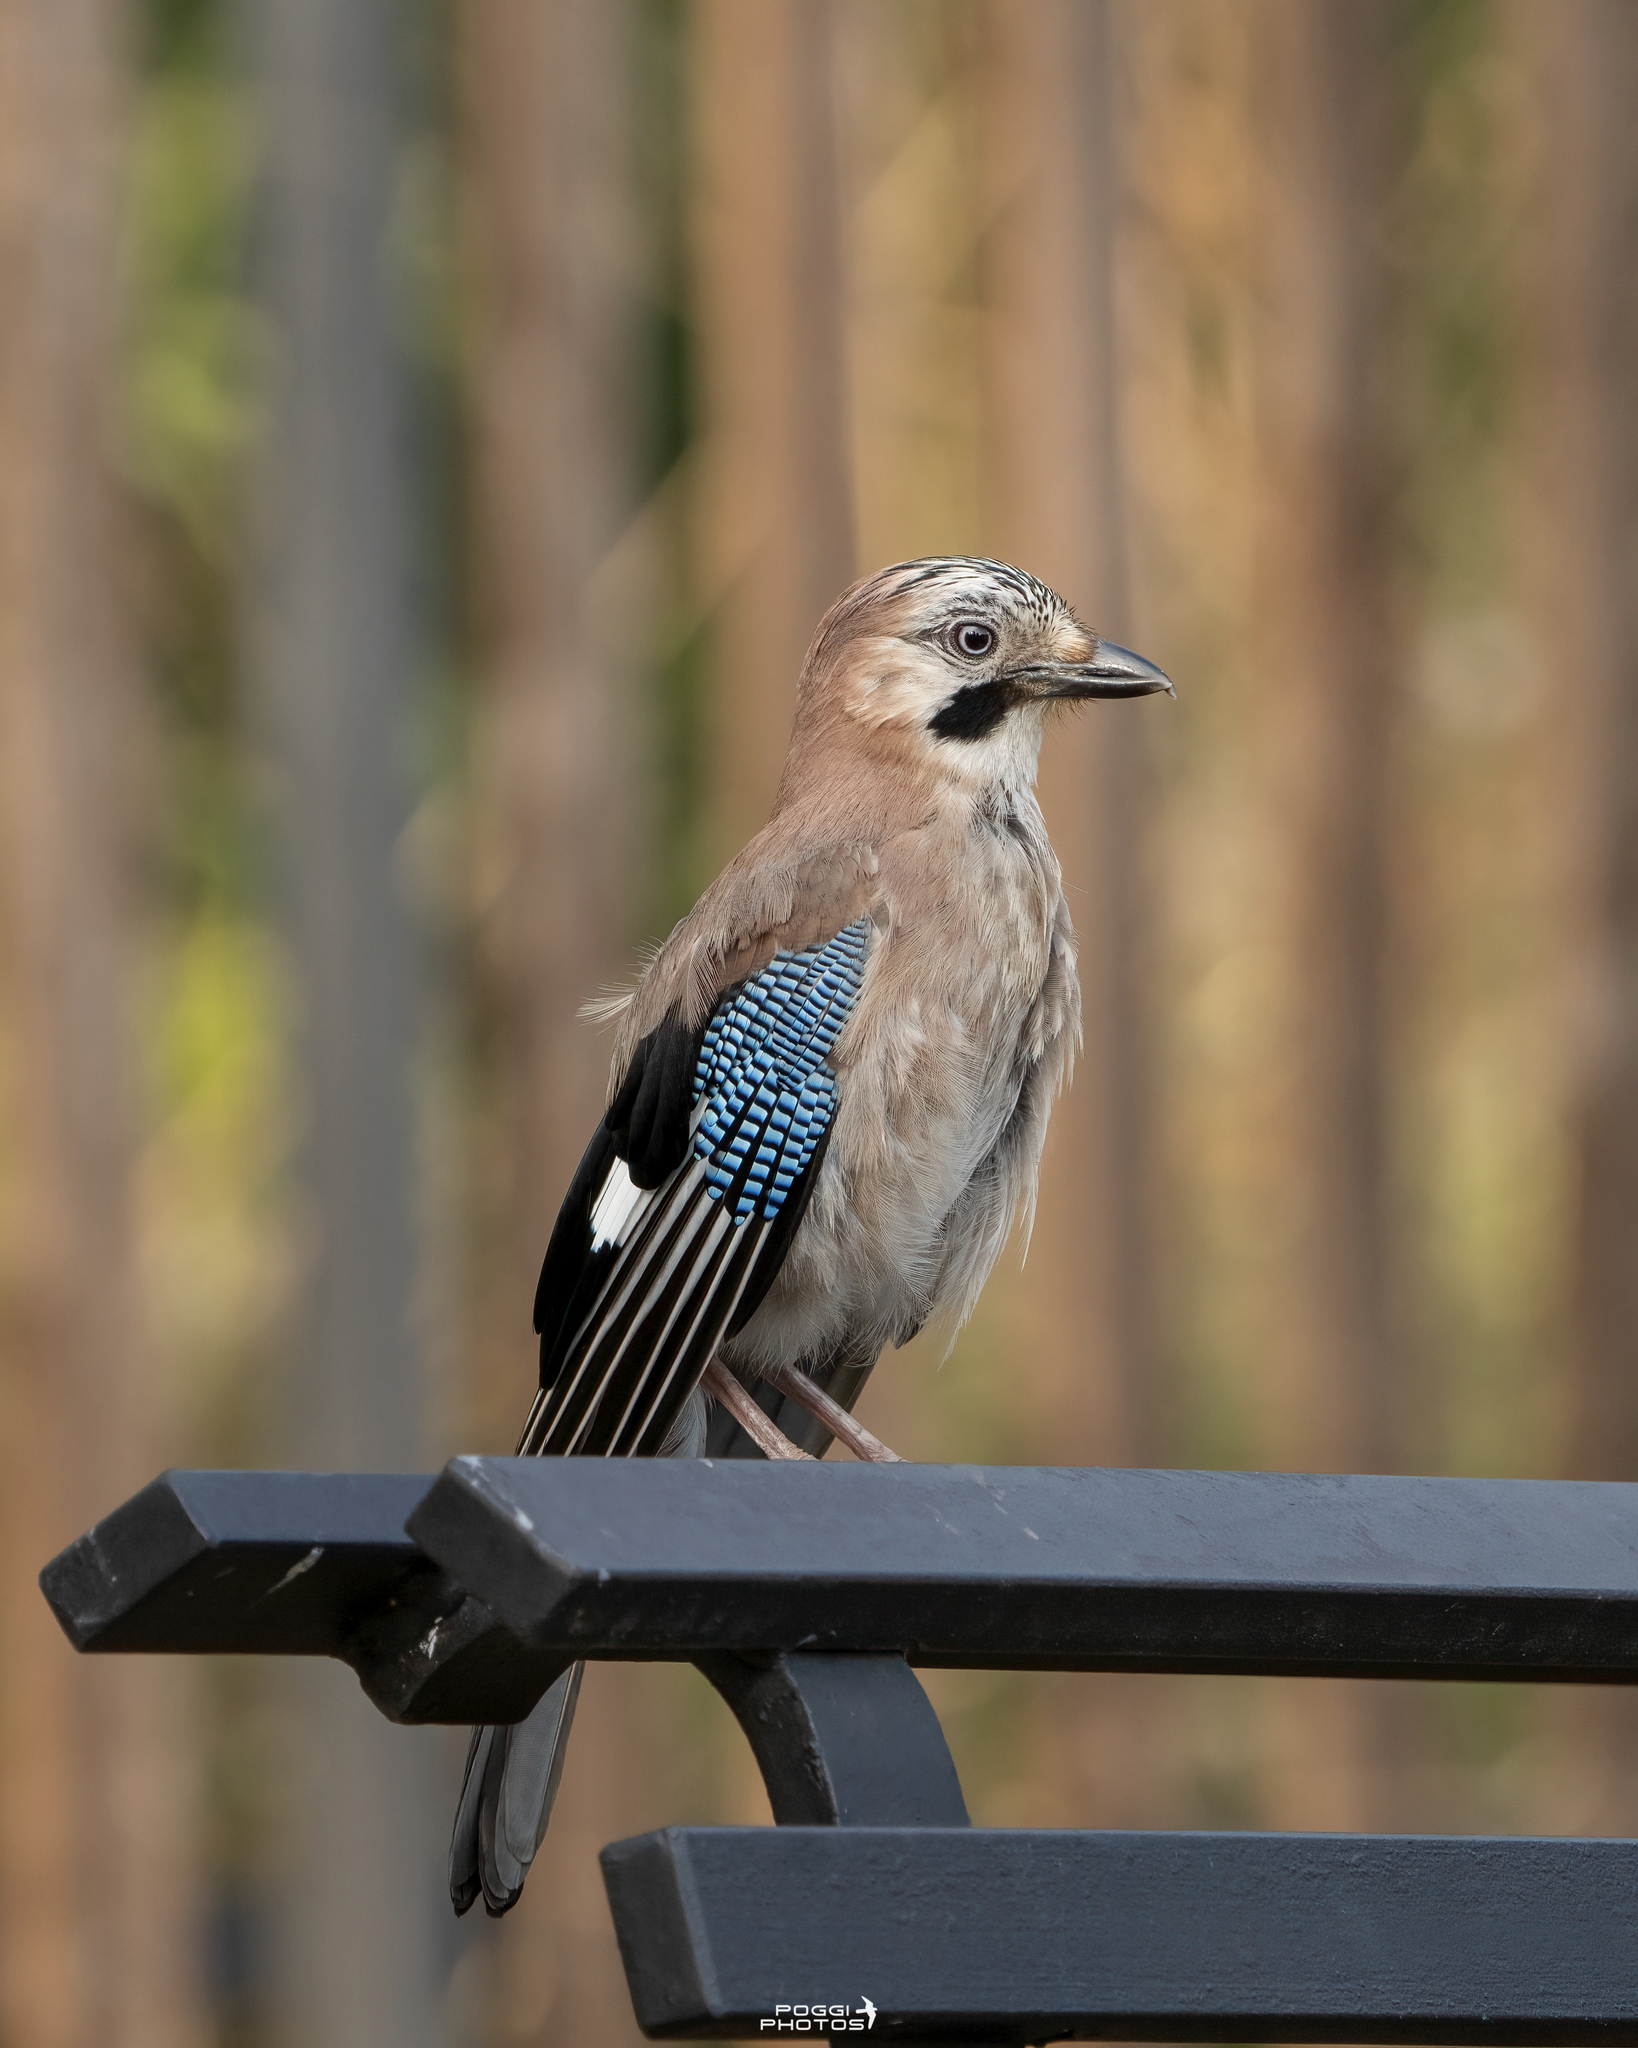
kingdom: Animalia
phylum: Chordata
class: Aves
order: Passeriformes
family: Corvidae
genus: Garrulus
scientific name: Garrulus glandarius
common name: Eurasian jay
